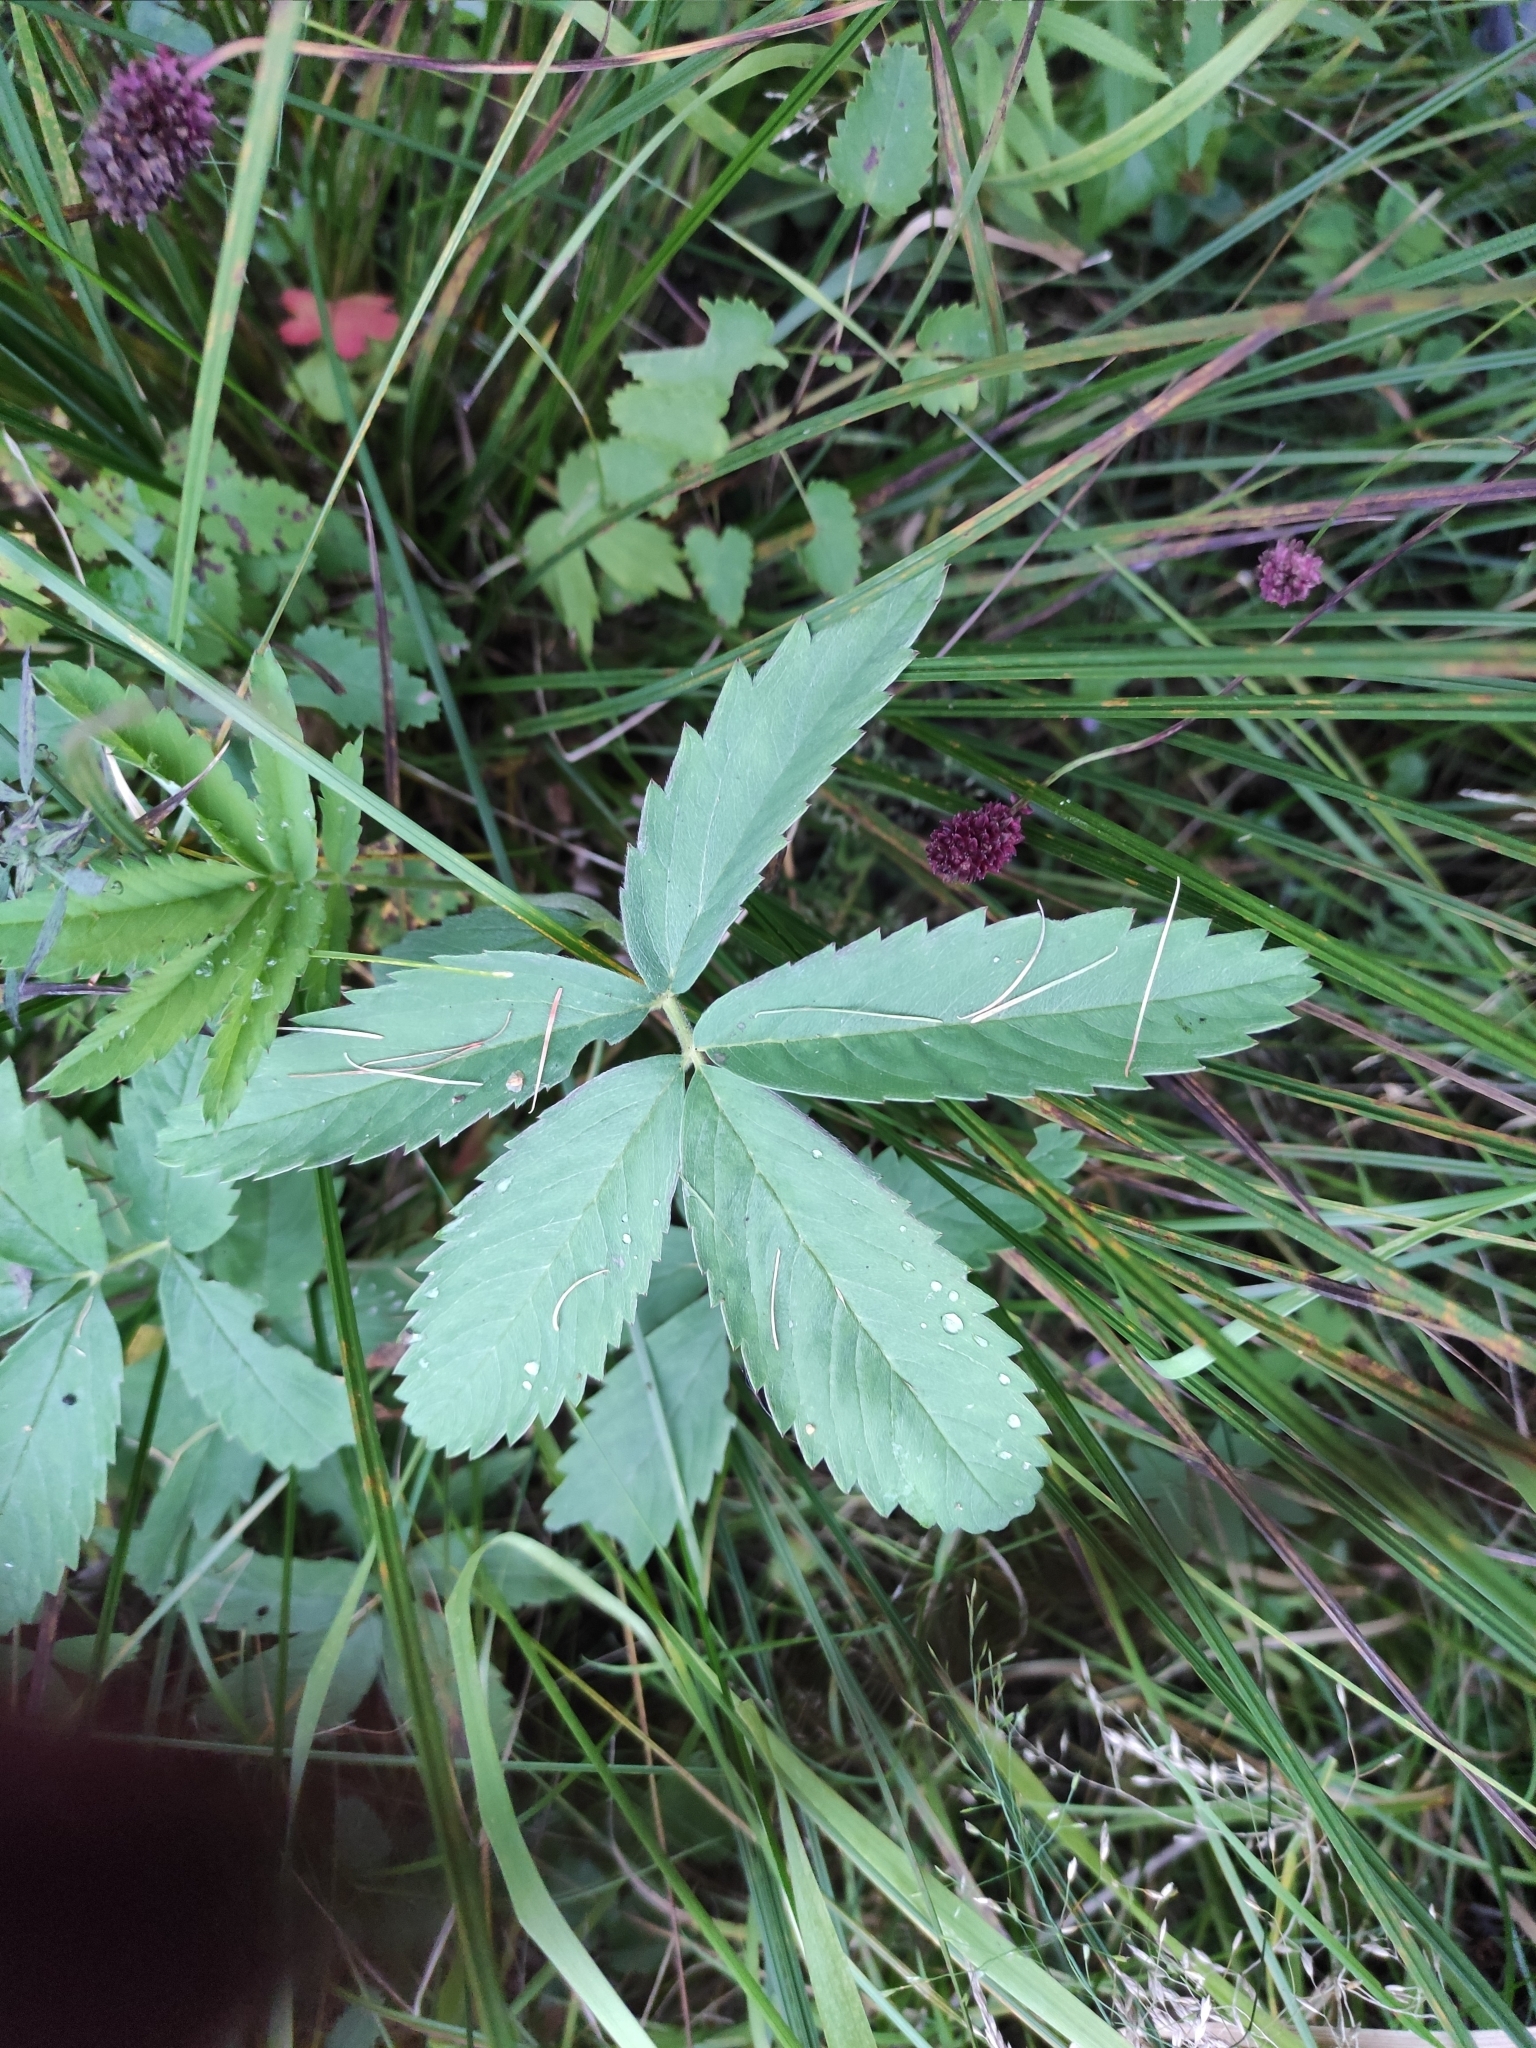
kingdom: Plantae
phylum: Tracheophyta
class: Magnoliopsida
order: Rosales
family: Rosaceae
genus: Comarum
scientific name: Comarum palustre
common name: Marsh cinquefoil
